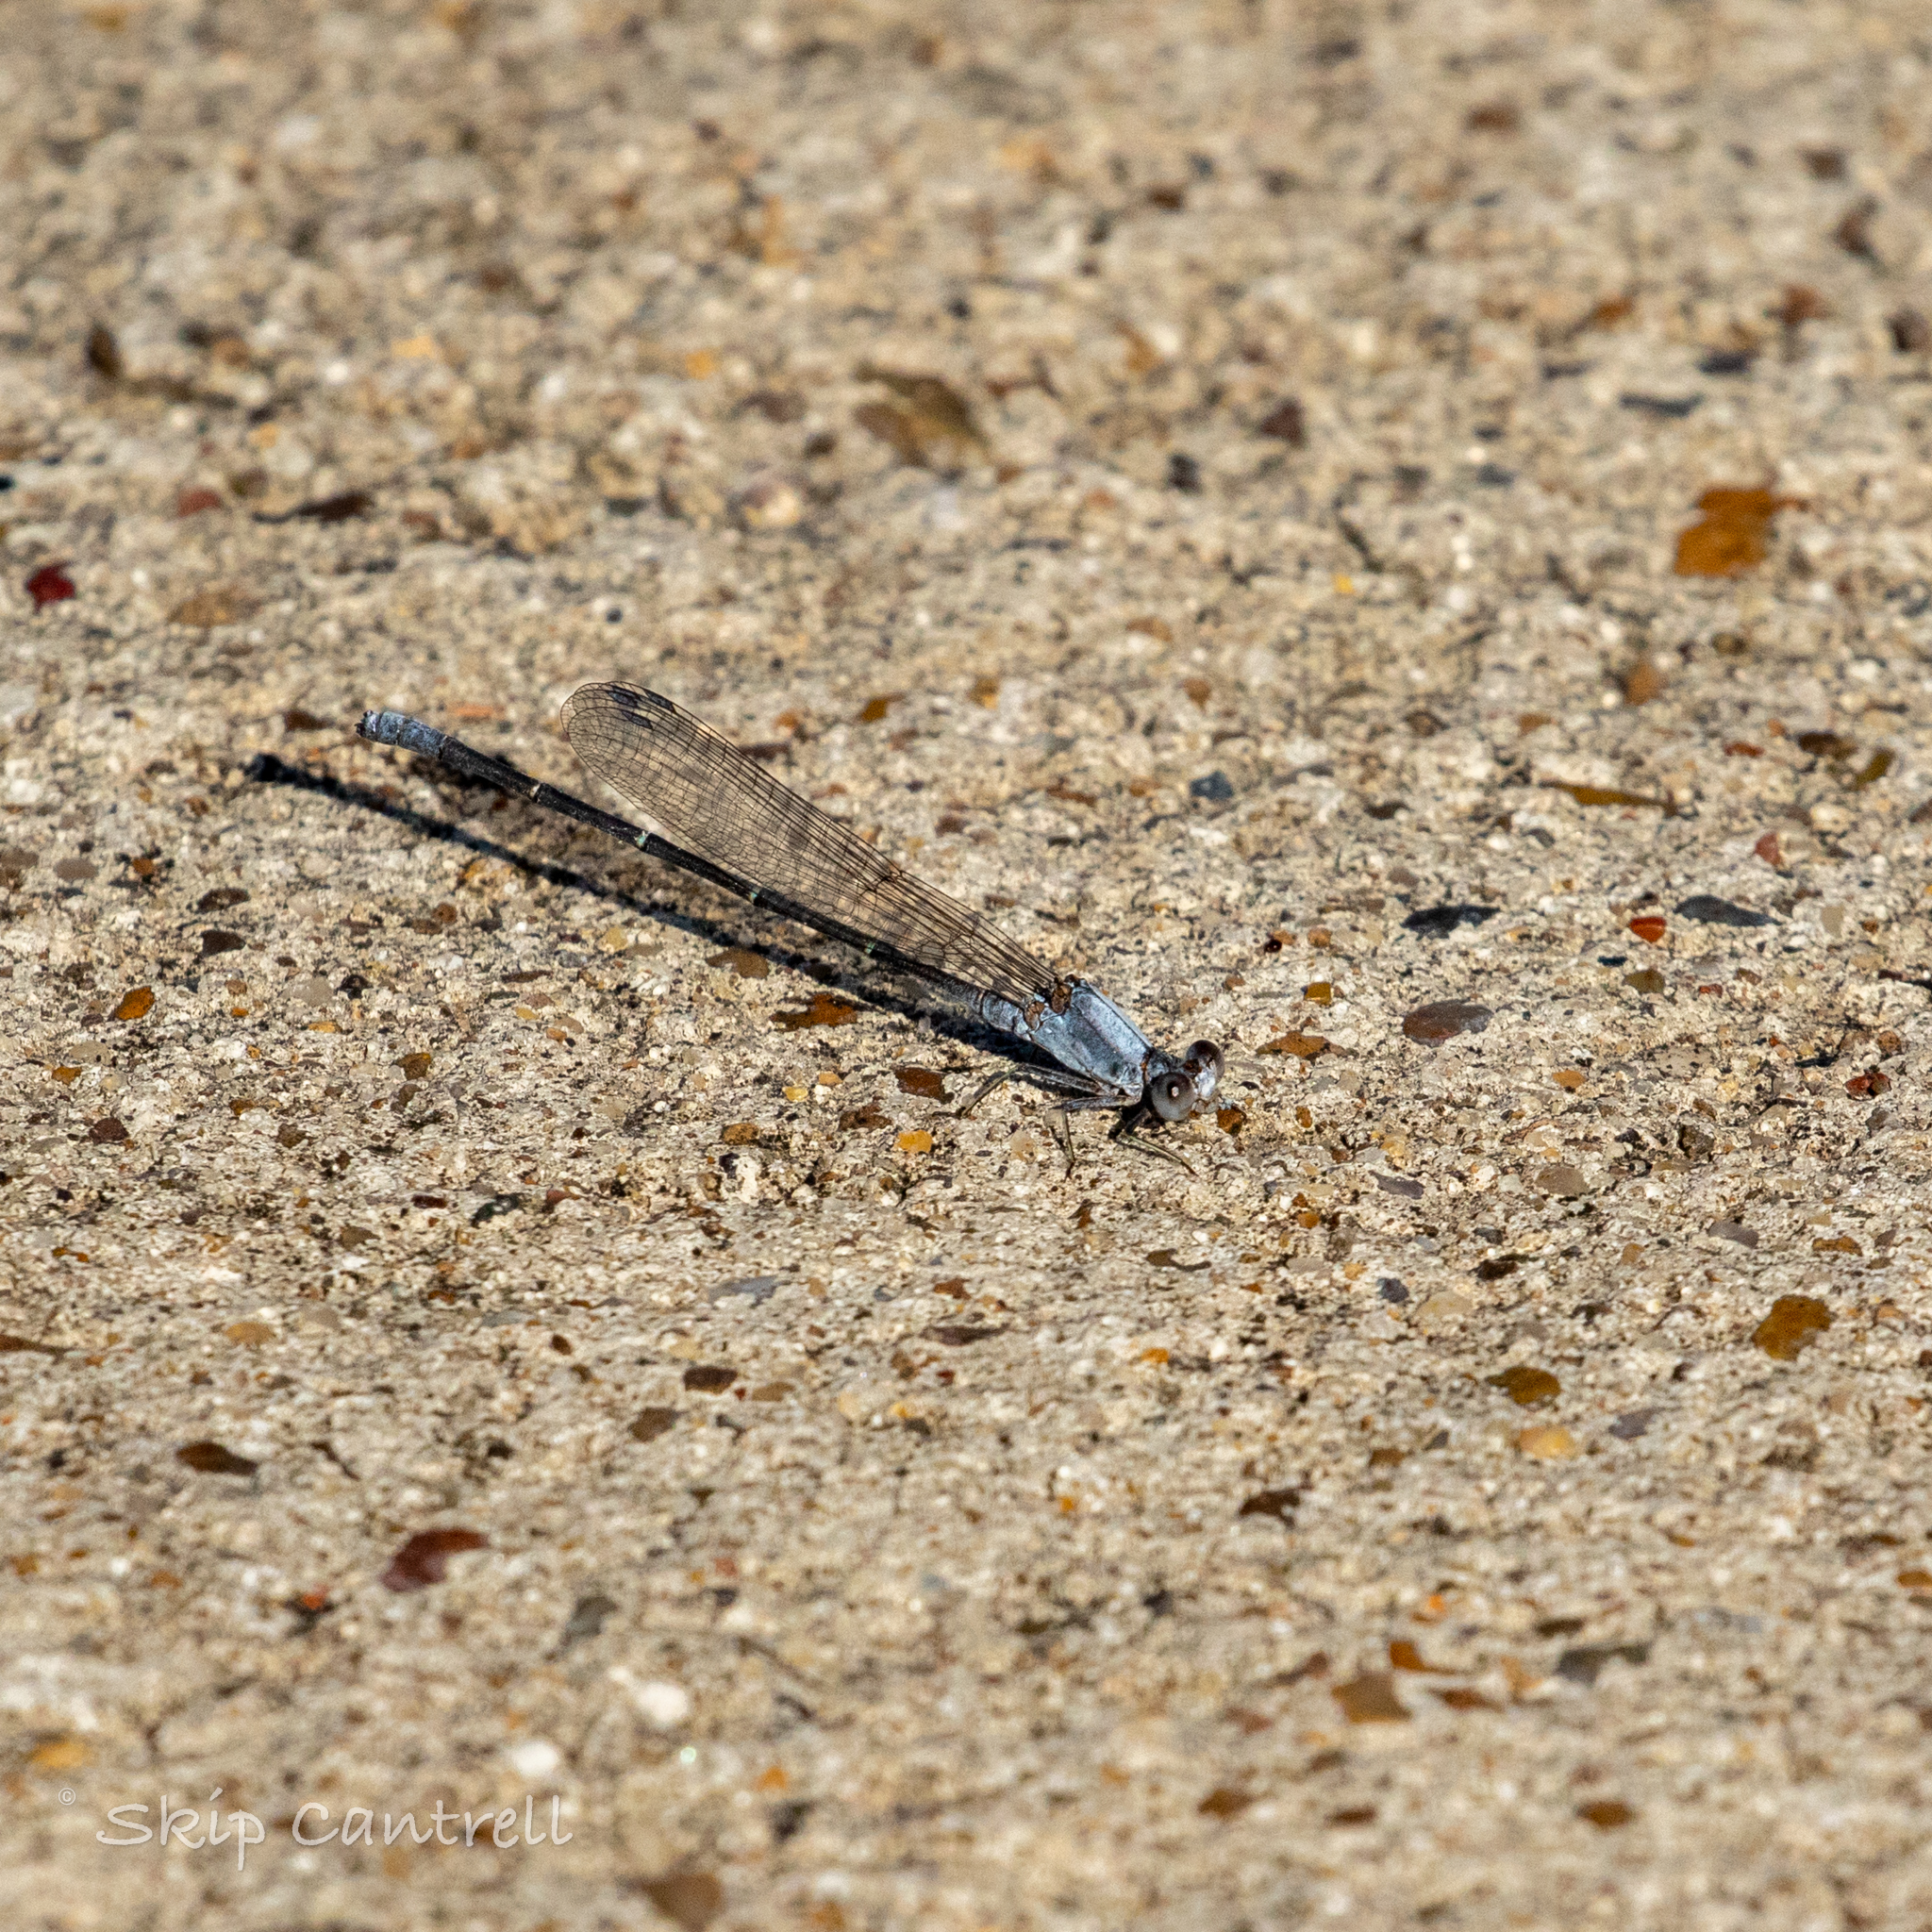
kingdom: Animalia
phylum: Arthropoda
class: Insecta
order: Odonata
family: Coenagrionidae
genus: Argia
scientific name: Argia moesta
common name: Powdered dancer
